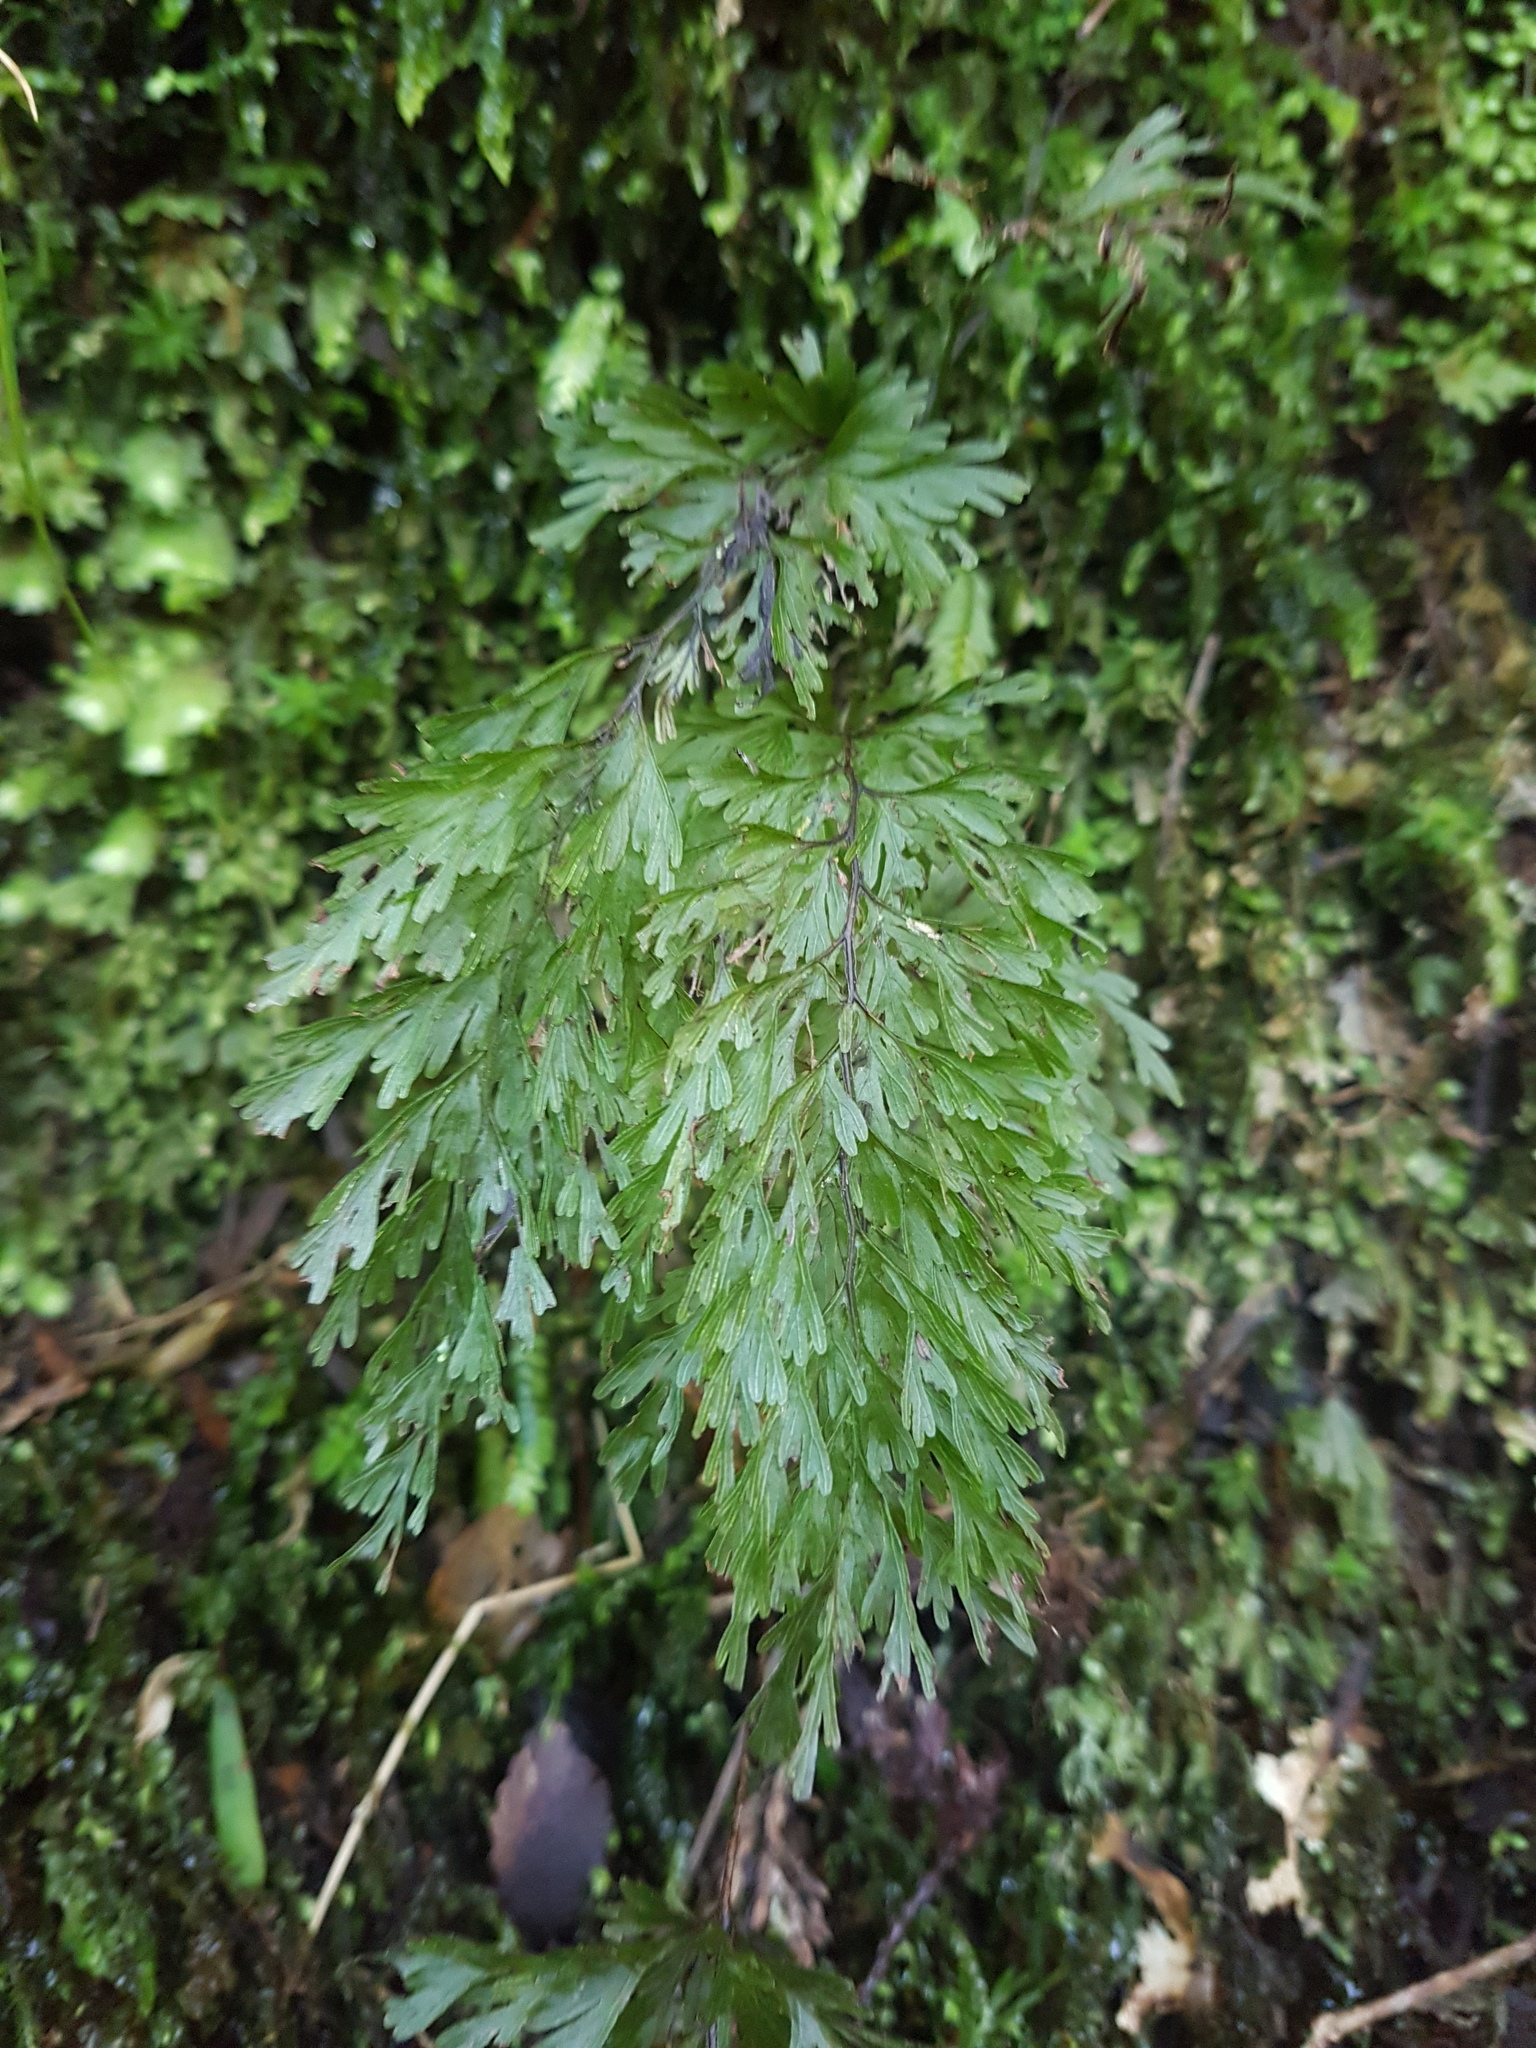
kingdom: Plantae
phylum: Tracheophyta
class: Polypodiopsida
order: Hymenophyllales
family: Hymenophyllaceae
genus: Hymenophyllum
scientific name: Hymenophyllum demissum
